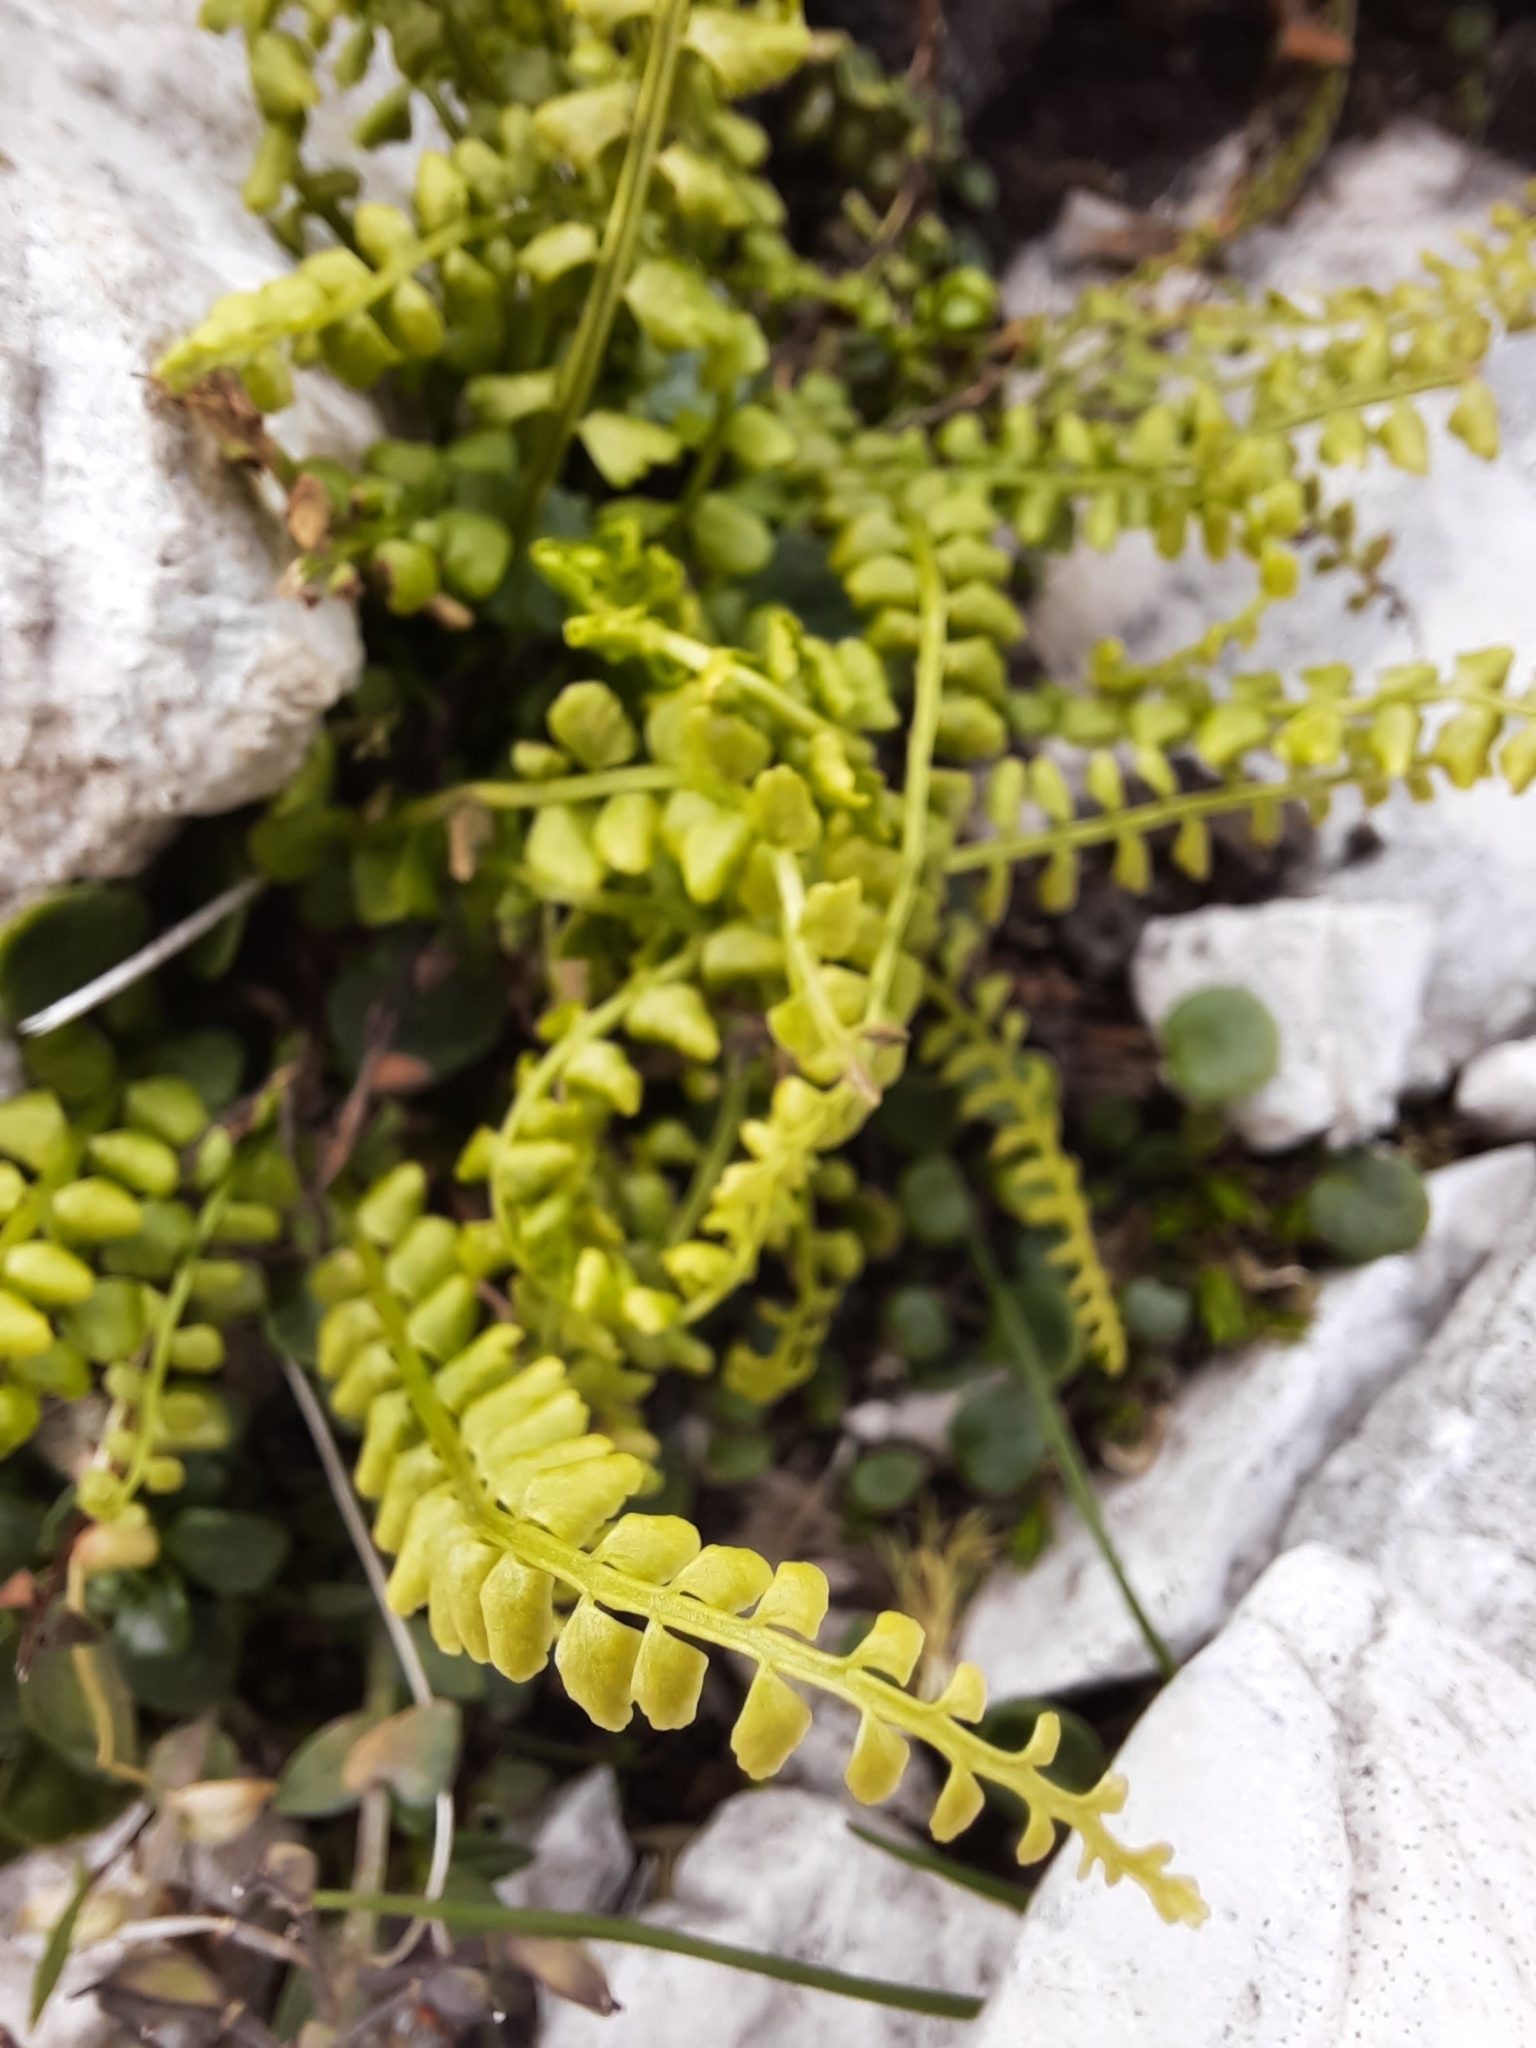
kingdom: Plantae
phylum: Tracheophyta
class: Polypodiopsida
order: Polypodiales
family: Aspleniaceae
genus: Asplenium
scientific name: Asplenium viride
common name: Green spleenwort
